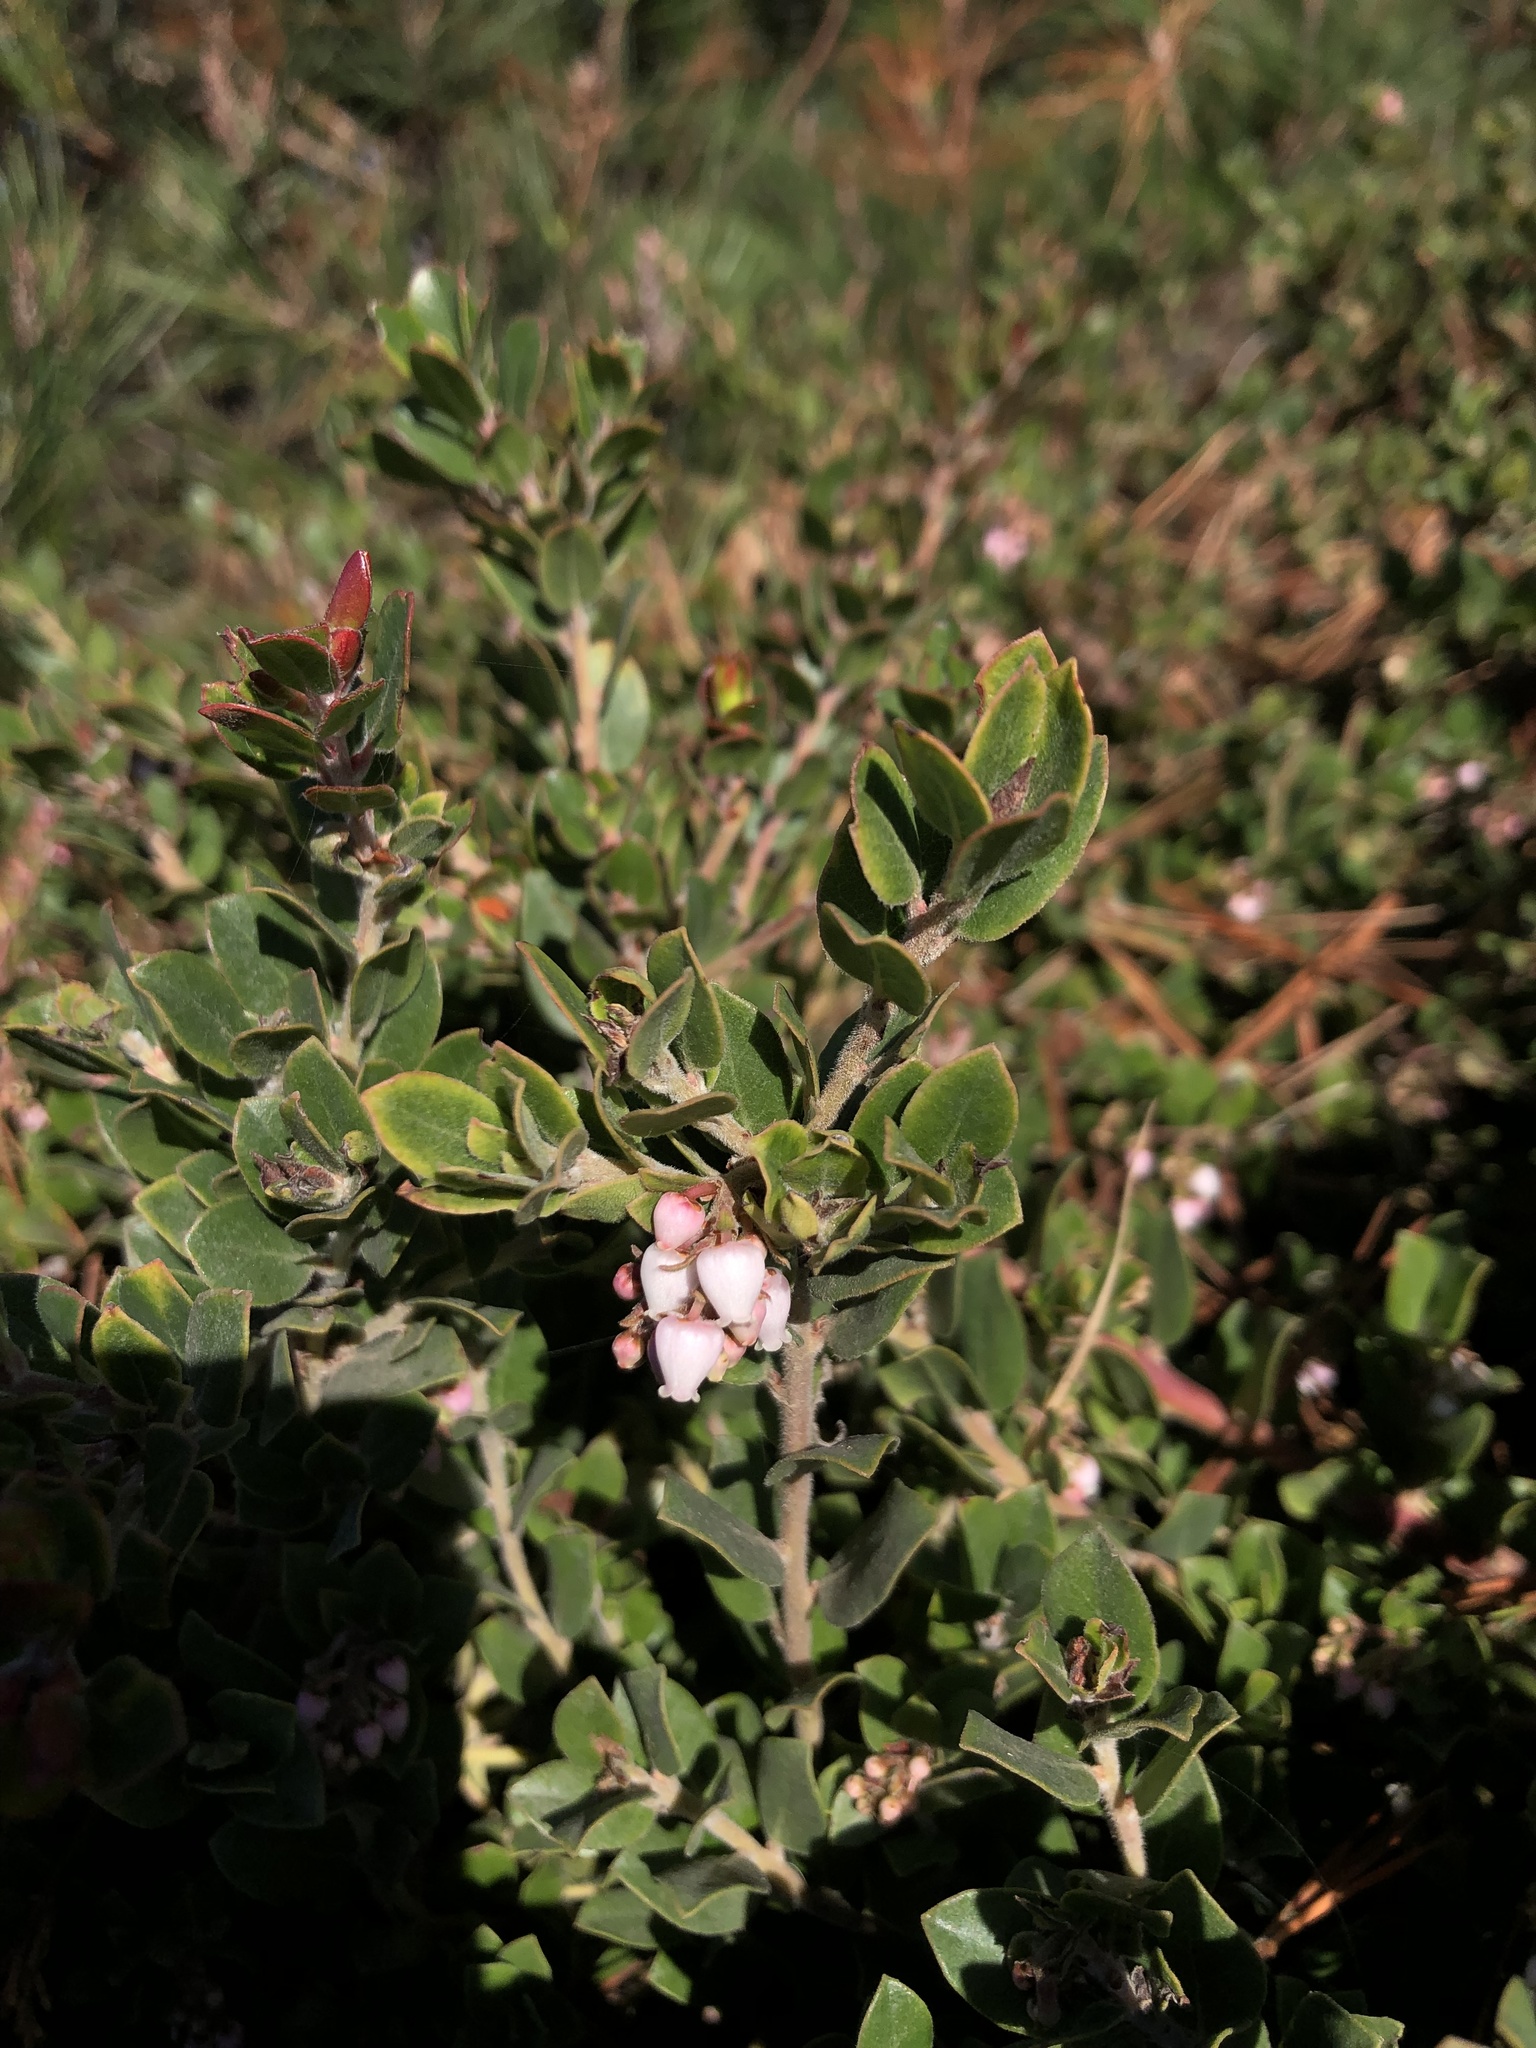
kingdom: Plantae
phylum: Tracheophyta
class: Magnoliopsida
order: Ericales
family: Ericaceae
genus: Arctostaphylos
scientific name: Arctostaphylos edmundsii
